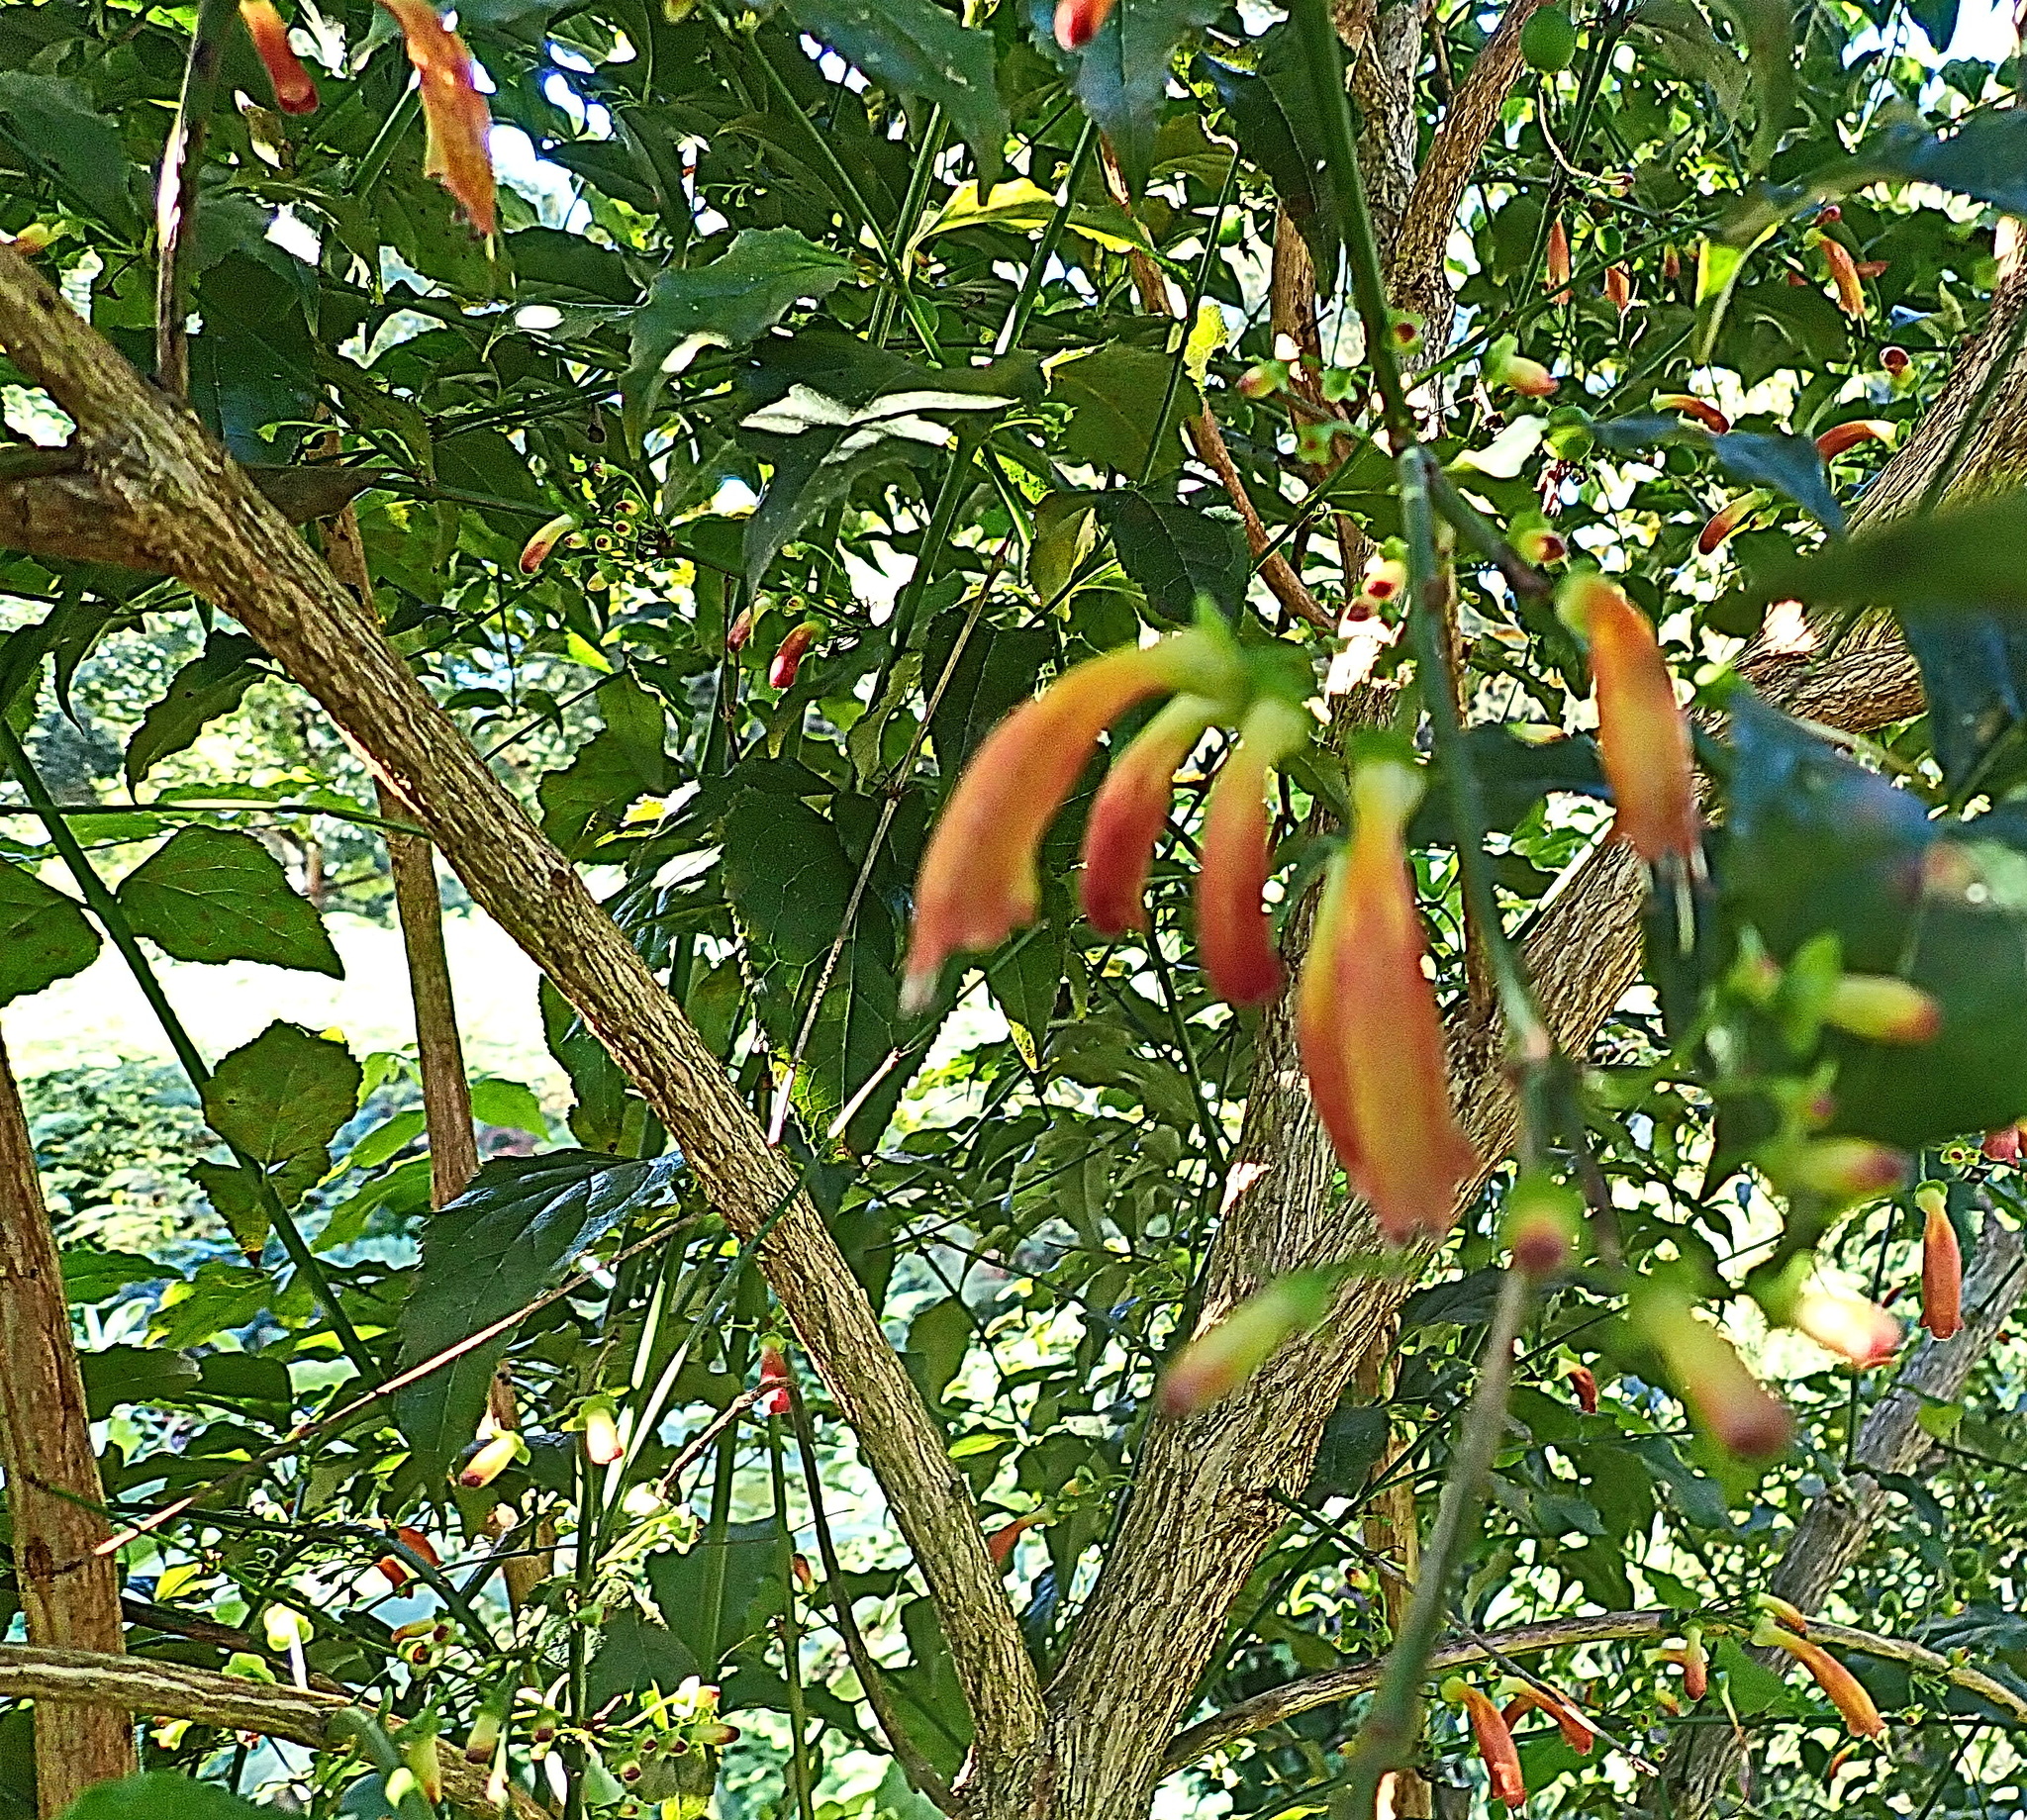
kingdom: Plantae
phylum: Tracheophyta
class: Magnoliopsida
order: Lamiales
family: Stilbaceae
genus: Halleria
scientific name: Halleria lucida
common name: Tree fuschia
